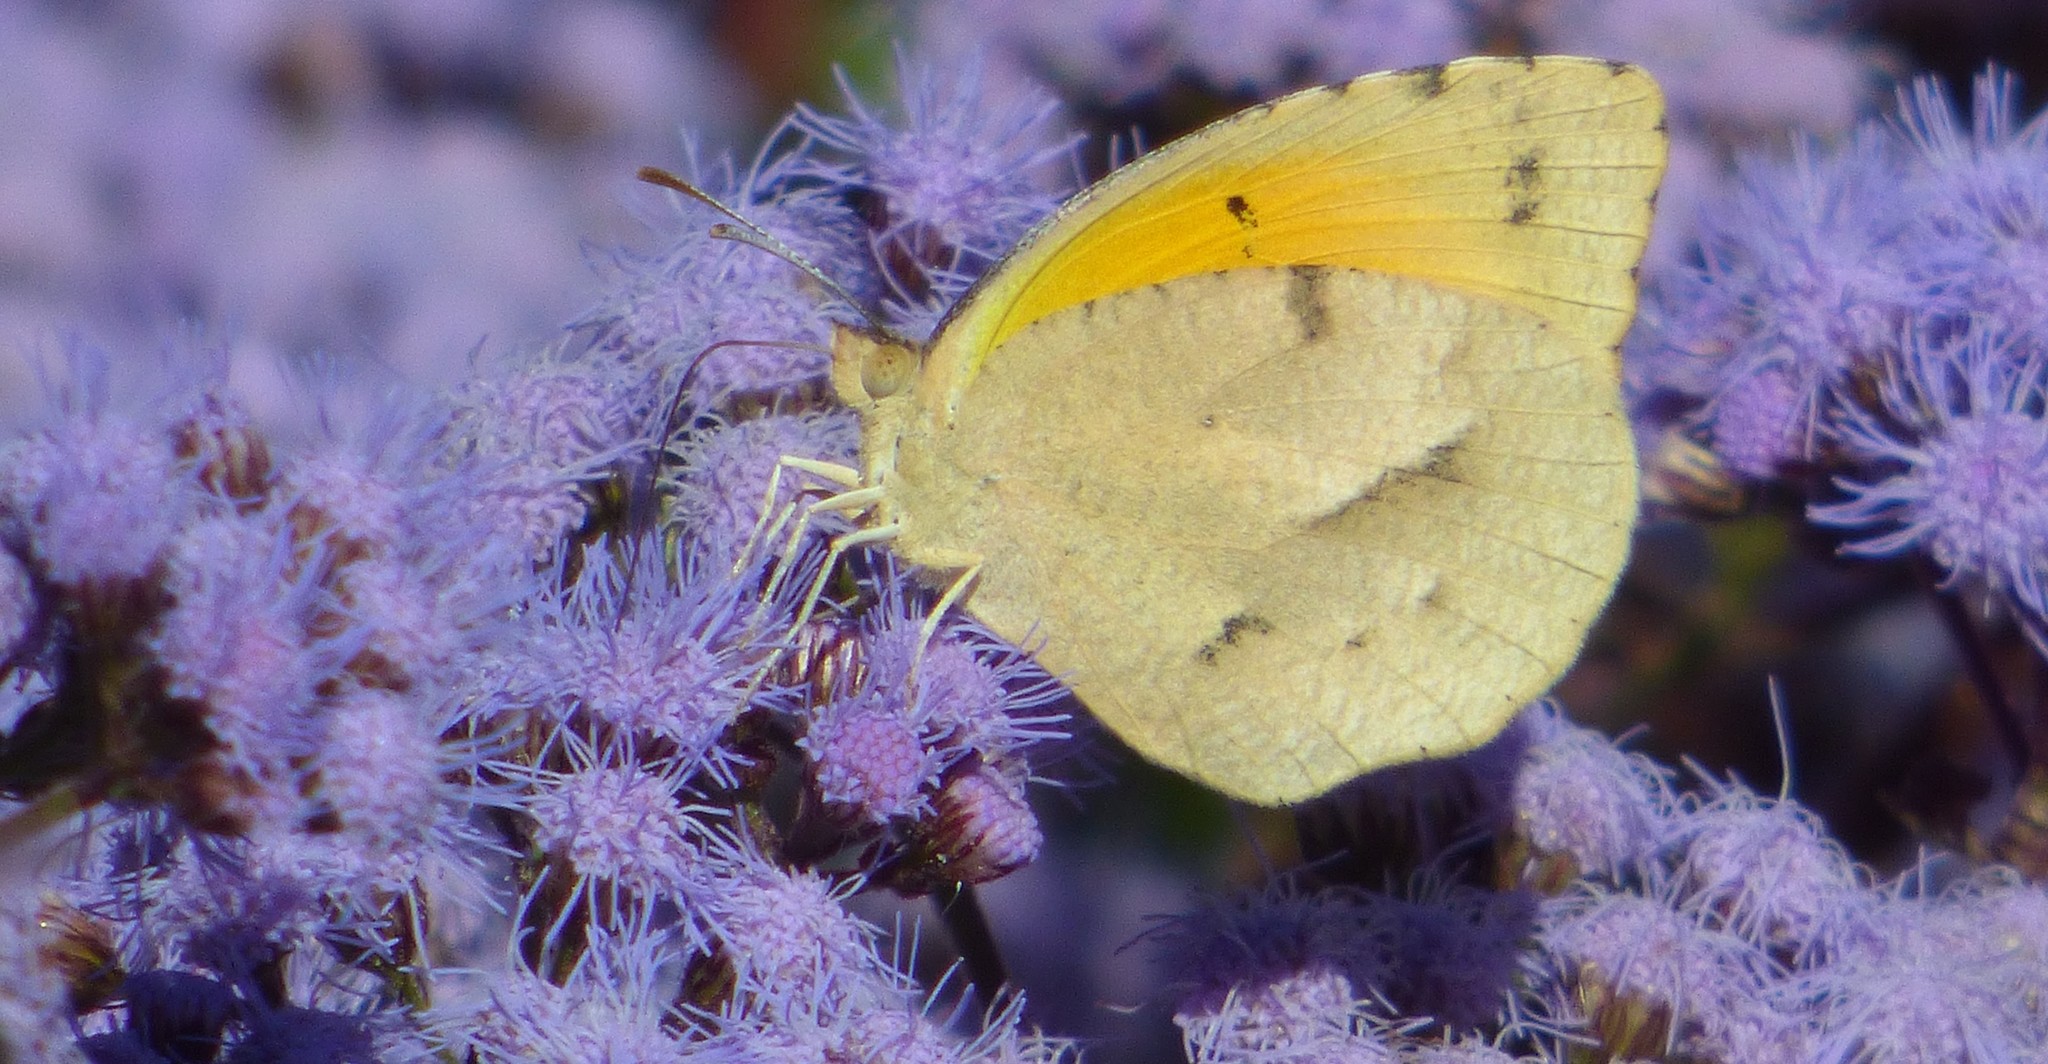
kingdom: Animalia
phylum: Arthropoda
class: Insecta
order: Lepidoptera
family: Pieridae
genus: Abaeis
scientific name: Abaeis nicippe
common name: Sleepy orange
